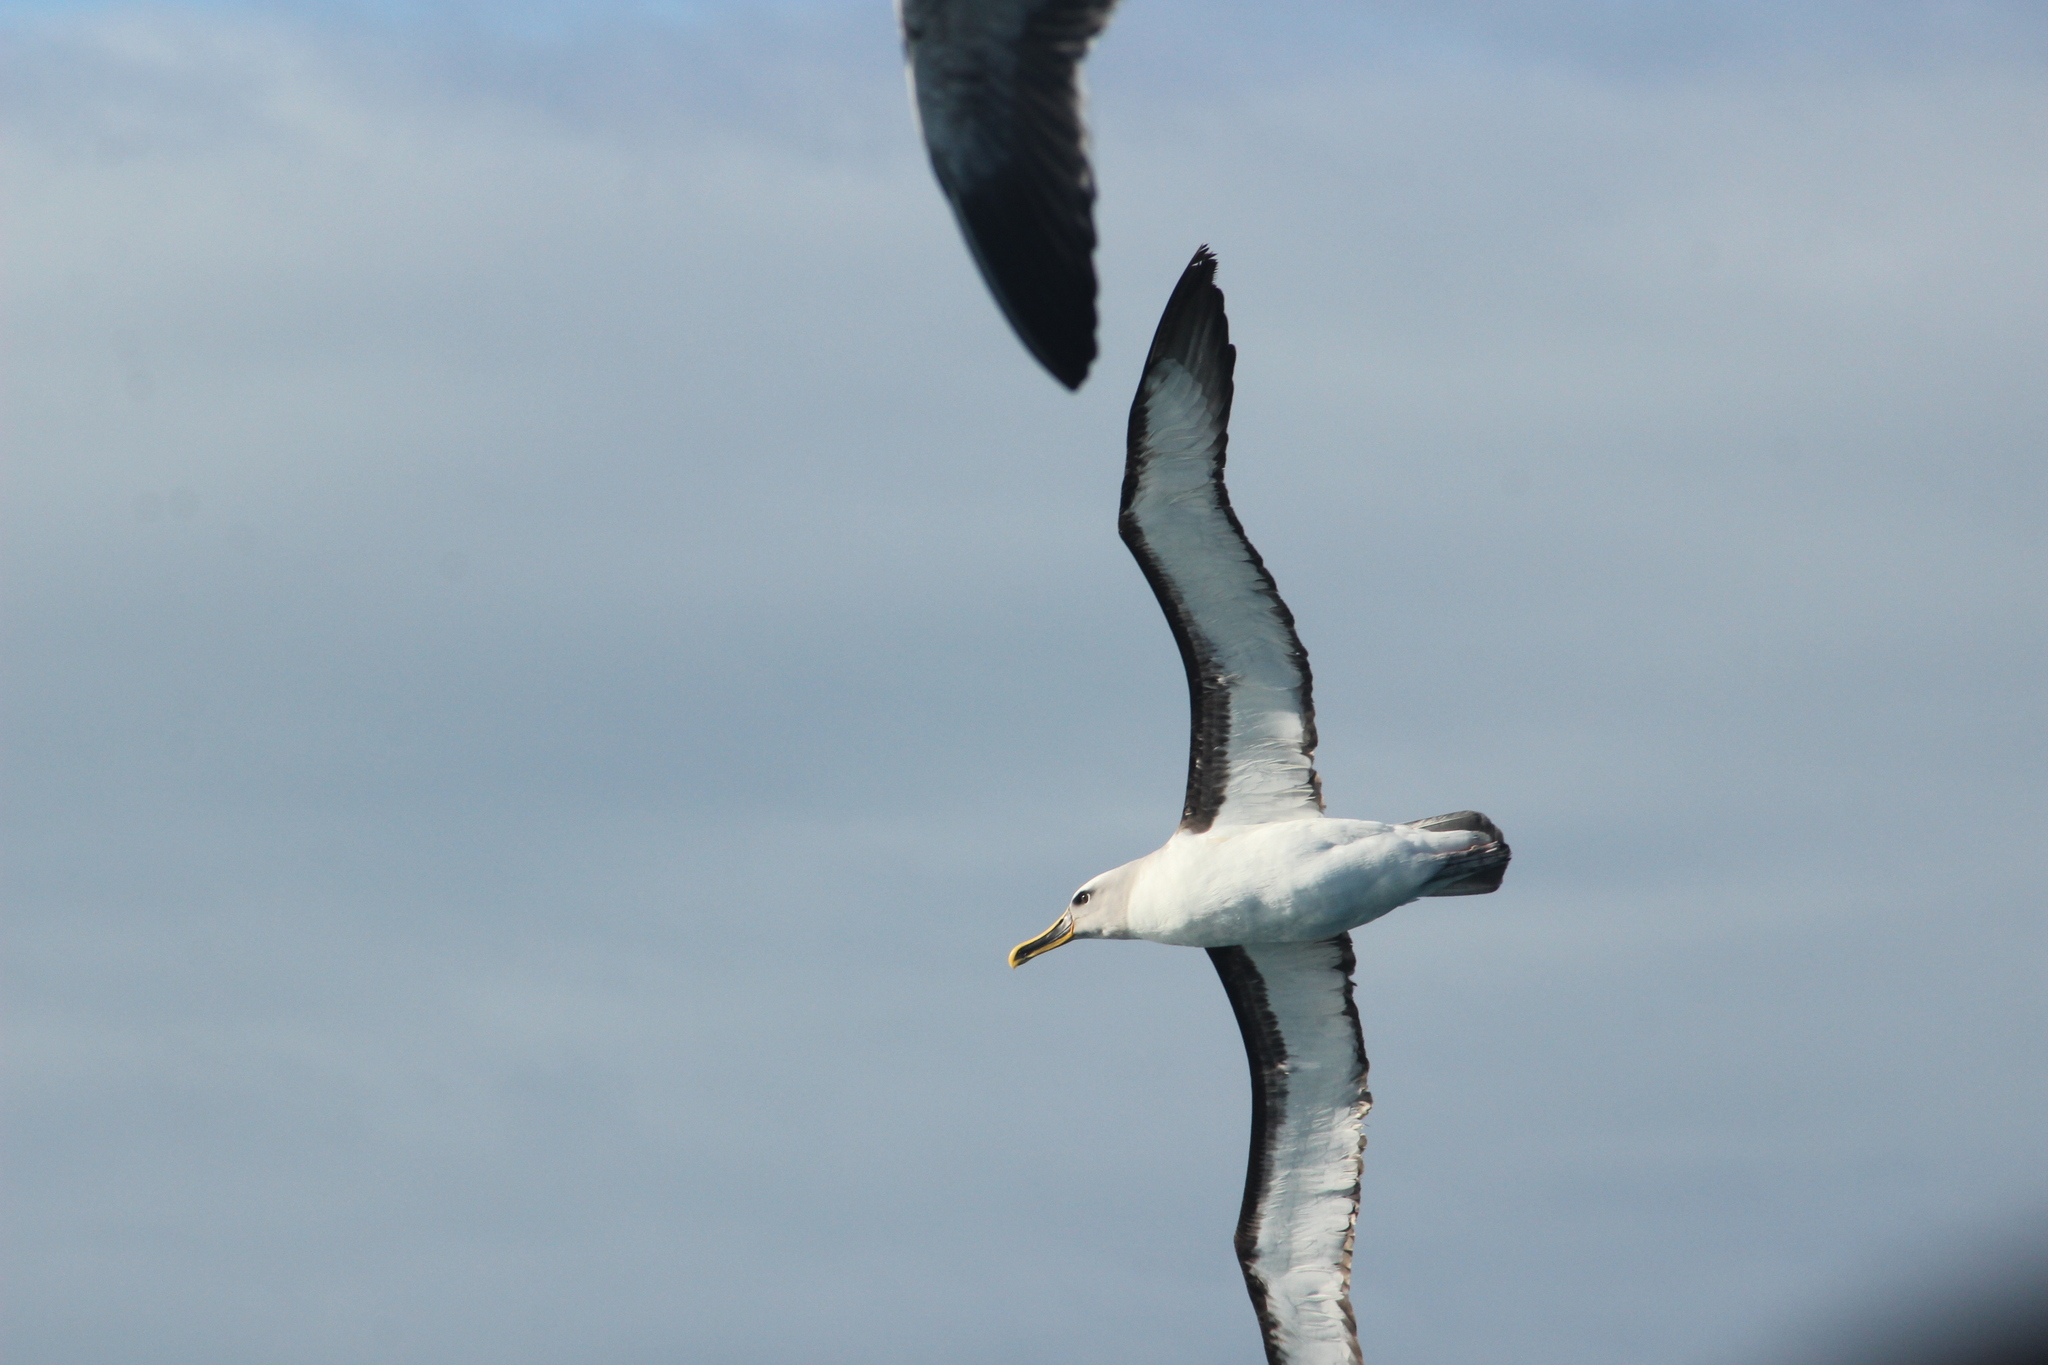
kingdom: Animalia
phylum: Chordata
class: Aves
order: Procellariiformes
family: Diomedeidae
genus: Thalassarche
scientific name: Thalassarche bulleri
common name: Buller's albatross
